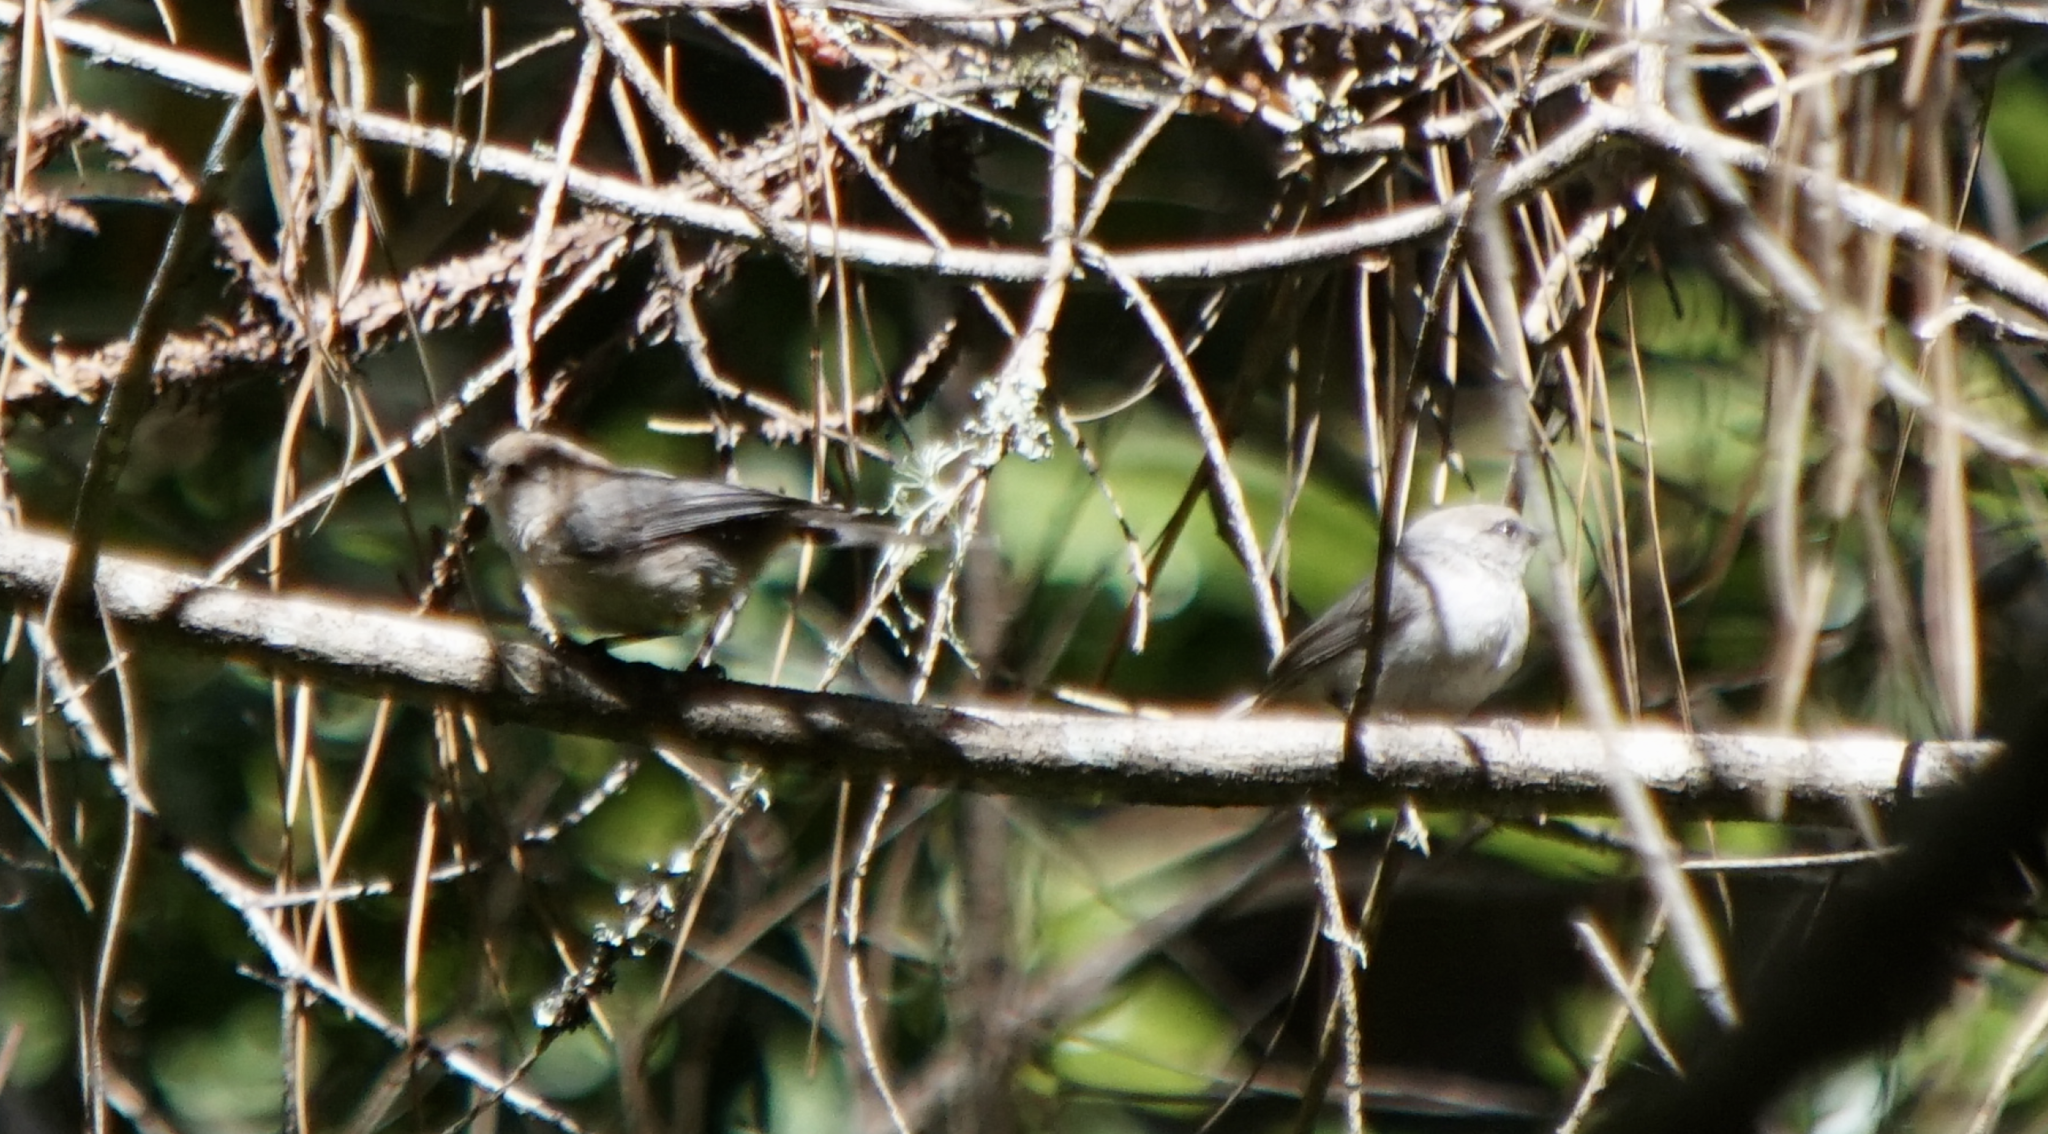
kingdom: Animalia
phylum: Chordata
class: Aves
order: Passeriformes
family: Aegithalidae
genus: Psaltriparus
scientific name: Psaltriparus minimus
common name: American bushtit
